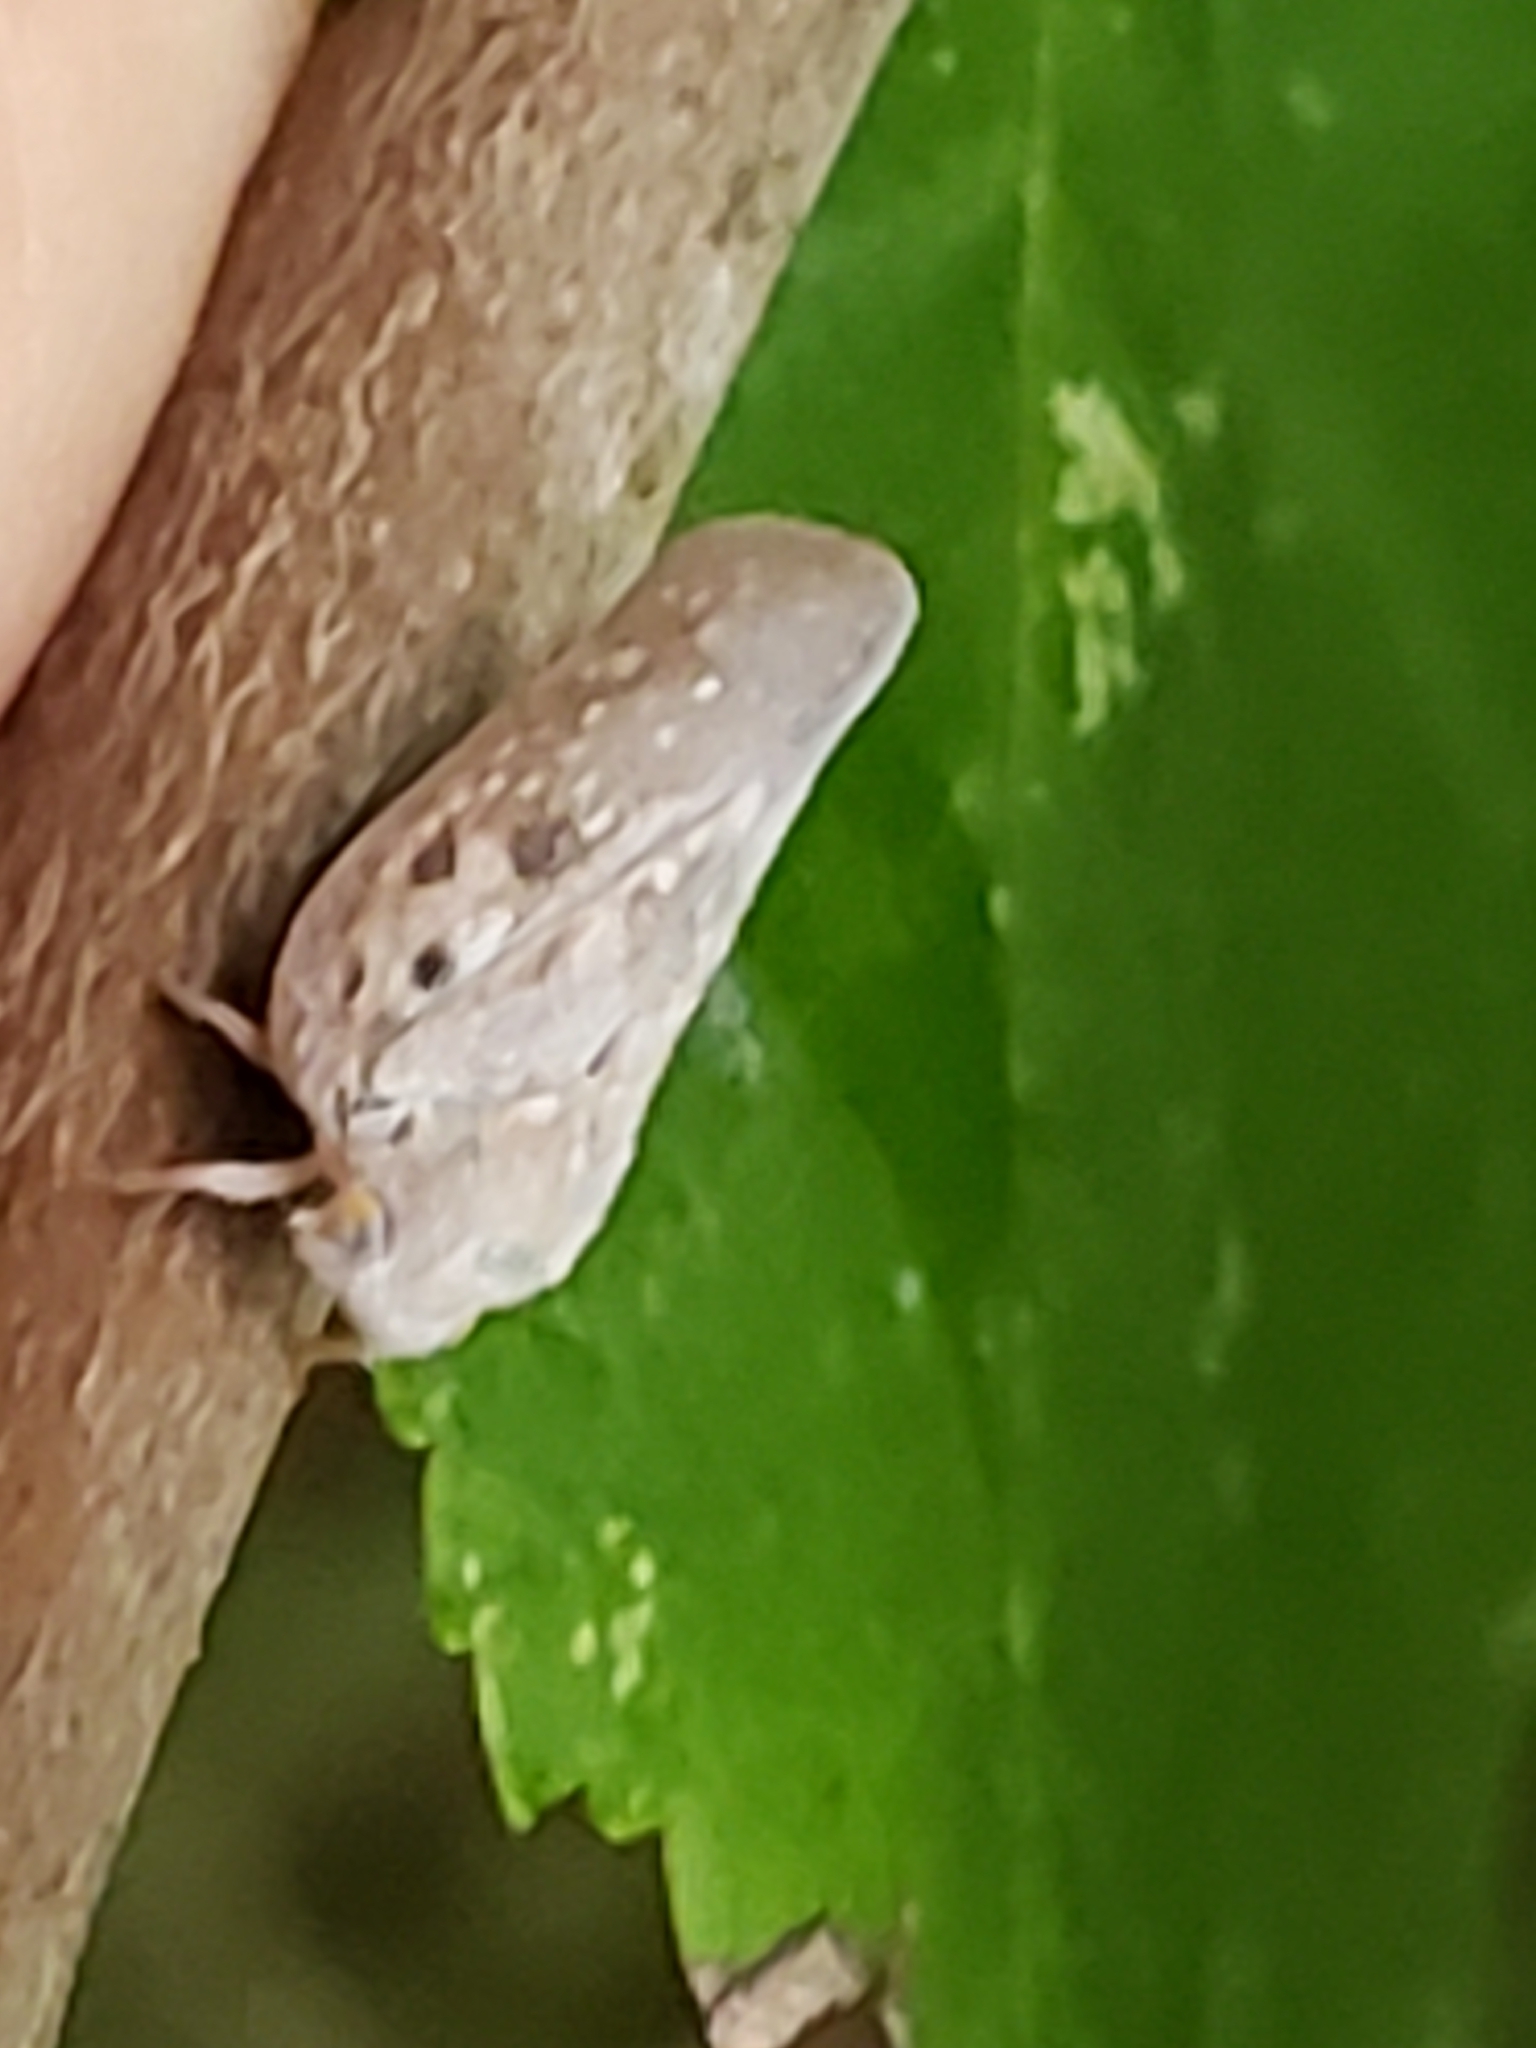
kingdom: Animalia
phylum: Arthropoda
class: Insecta
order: Hemiptera
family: Flatidae
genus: Metcalfa
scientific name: Metcalfa pruinosa
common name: Citrus flatid planthopper
